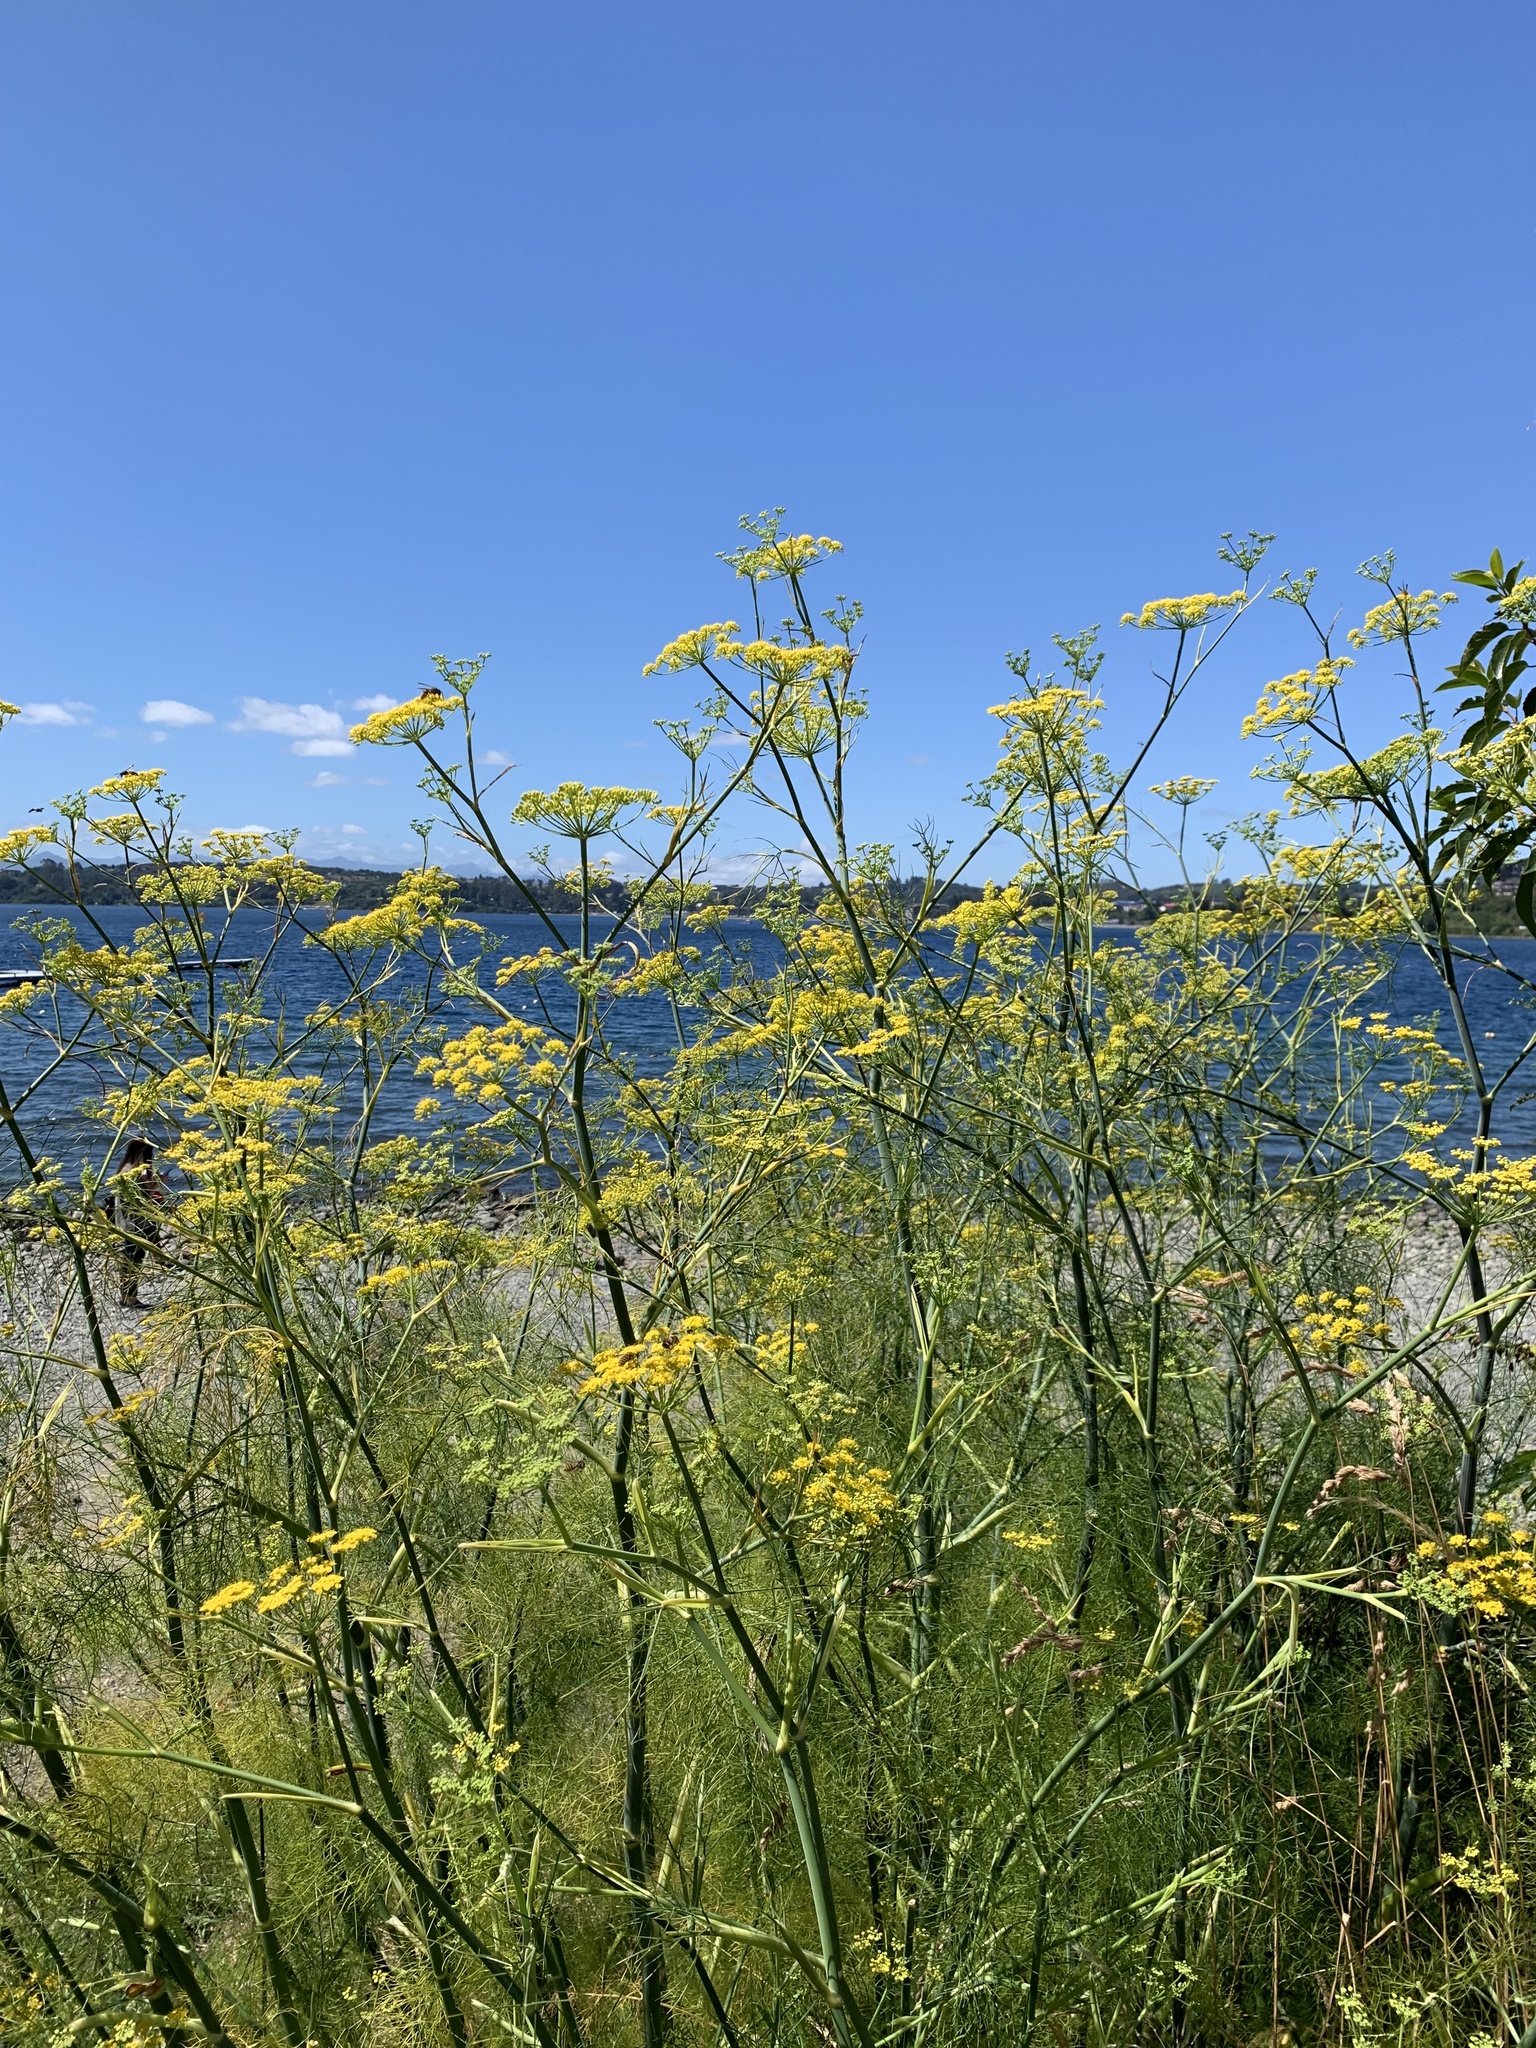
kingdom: Plantae
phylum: Tracheophyta
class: Magnoliopsida
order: Apiales
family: Apiaceae
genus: Foeniculum
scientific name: Foeniculum vulgare
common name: Fennel
